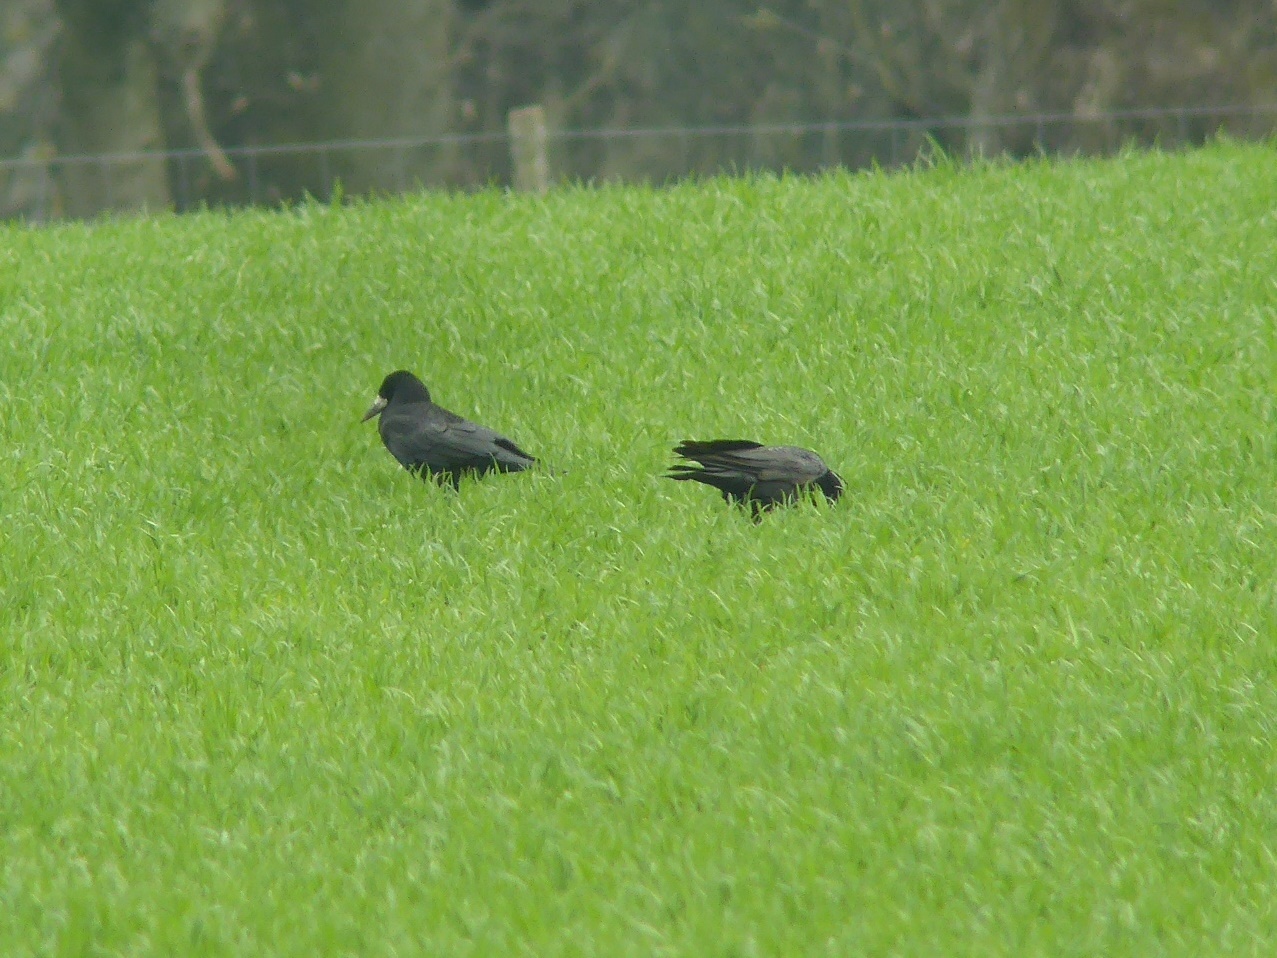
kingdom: Animalia
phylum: Chordata
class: Aves
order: Passeriformes
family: Corvidae
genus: Corvus
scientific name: Corvus frugilegus
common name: Rook
